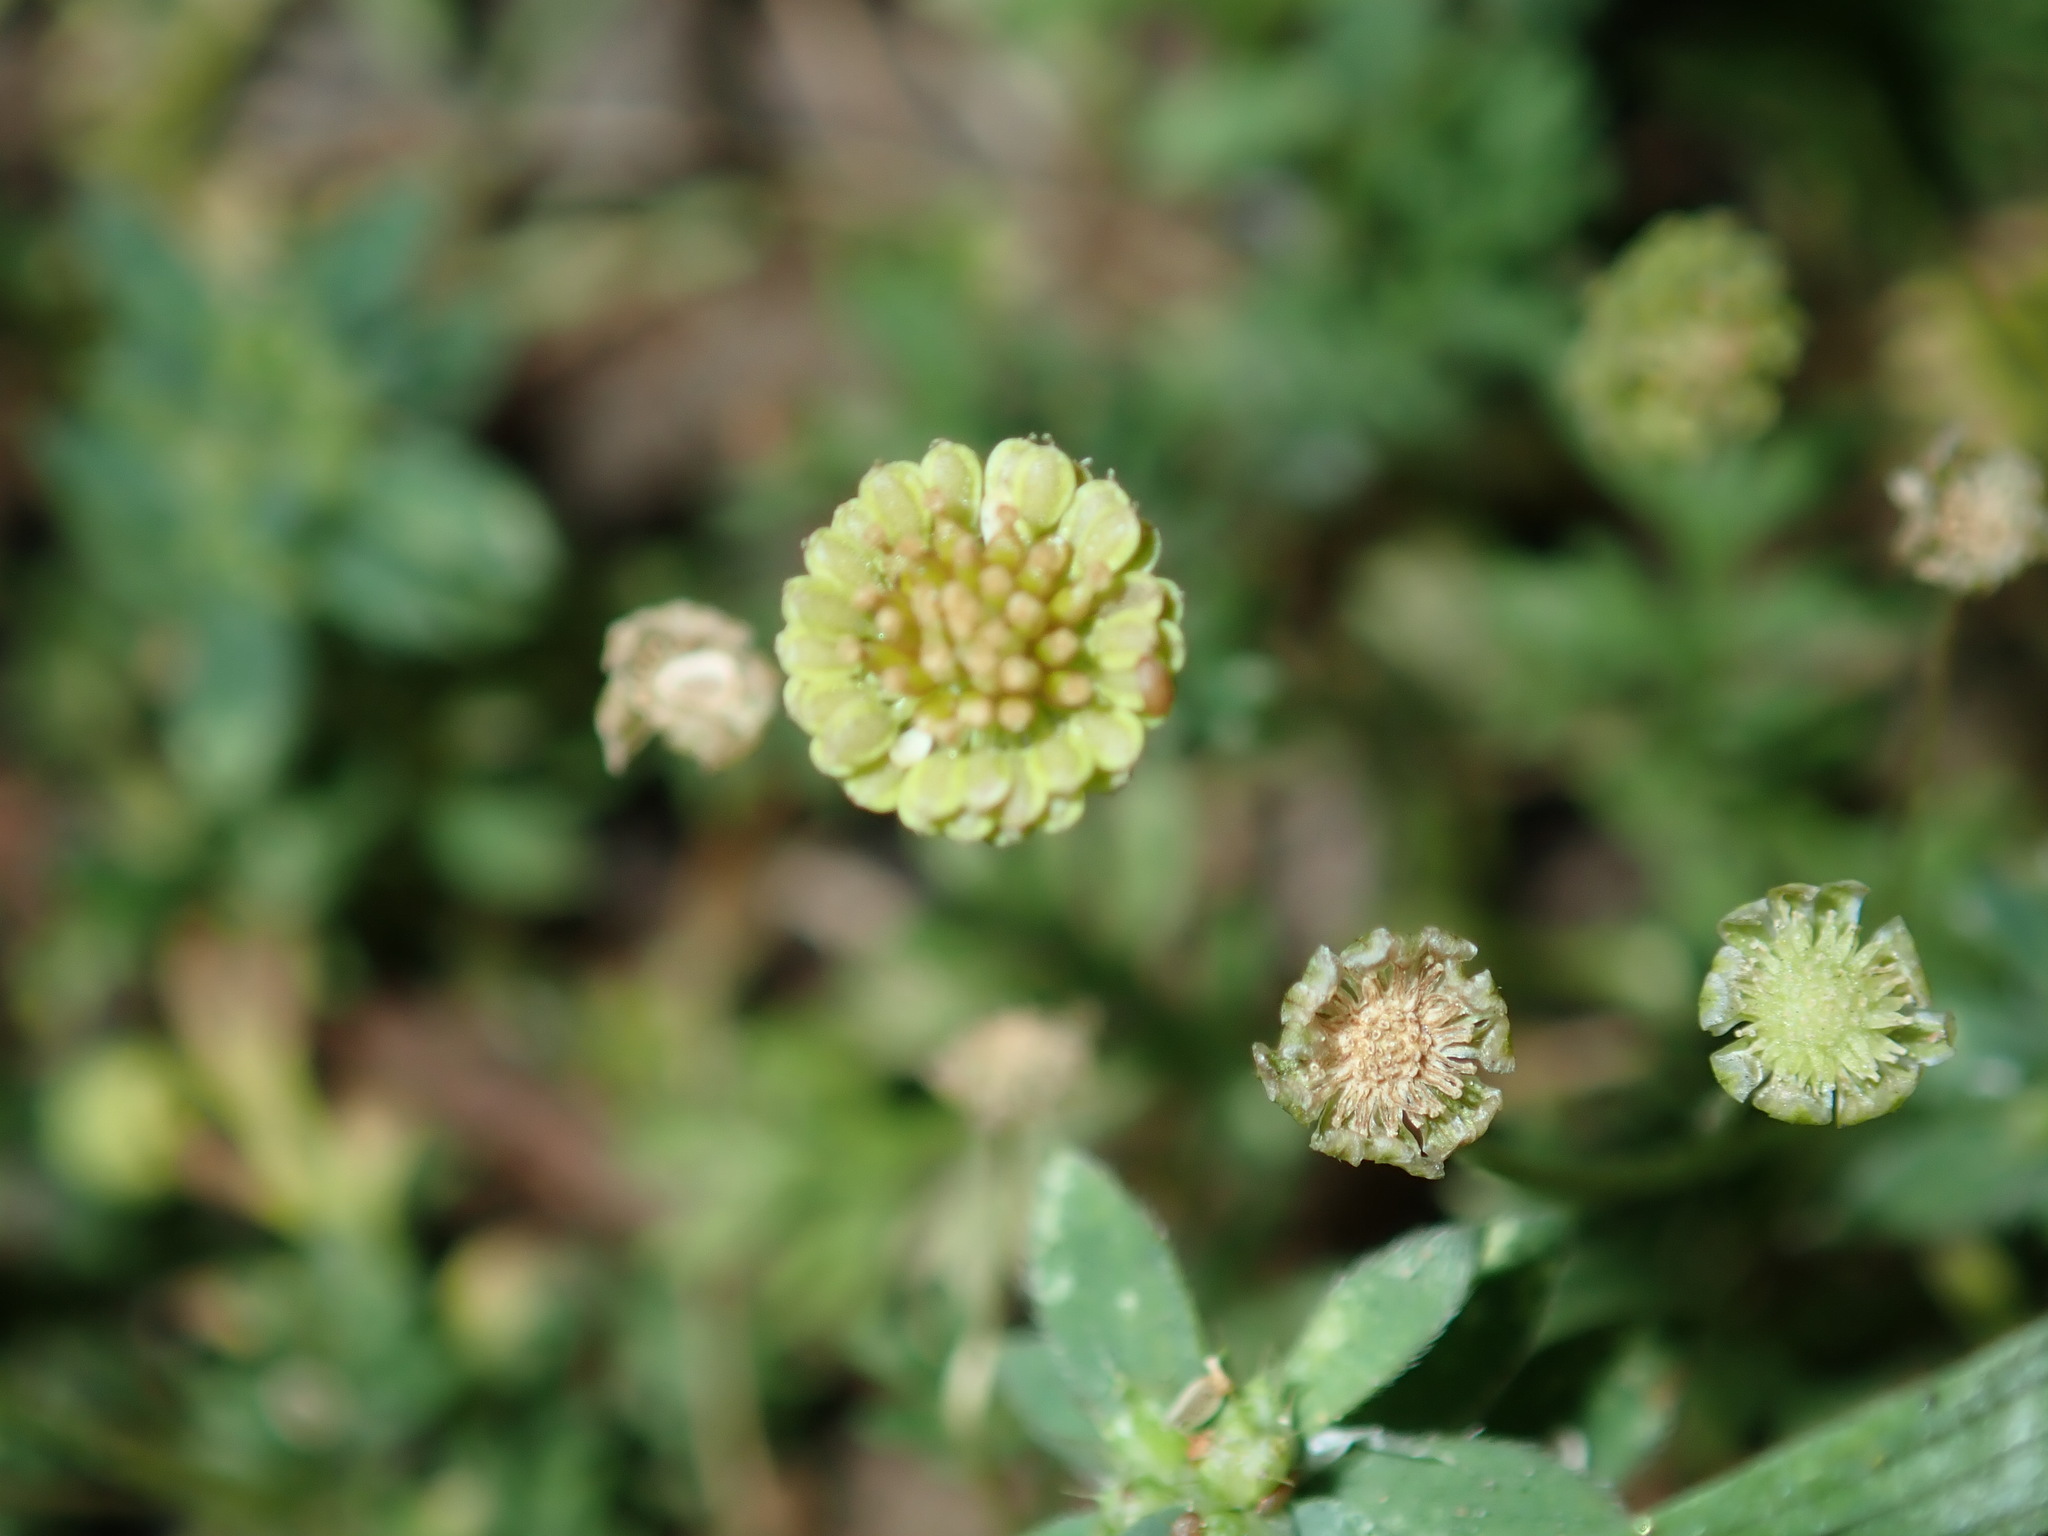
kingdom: Plantae
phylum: Tracheophyta
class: Magnoliopsida
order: Asterales
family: Asteraceae
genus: Cotula
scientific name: Cotula australis
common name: Australian waterbuttons
